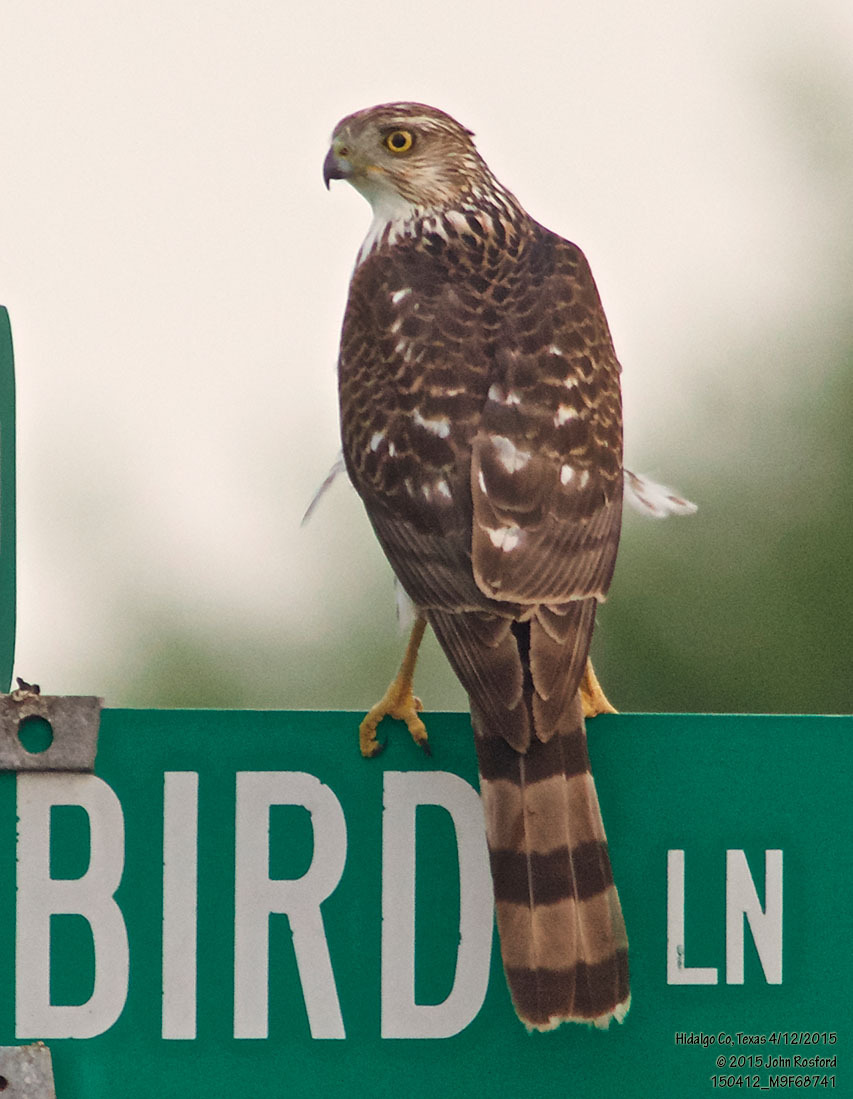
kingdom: Animalia
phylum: Chordata
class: Aves
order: Accipitriformes
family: Accipitridae
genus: Accipiter
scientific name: Accipiter cooperii
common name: Cooper's hawk
